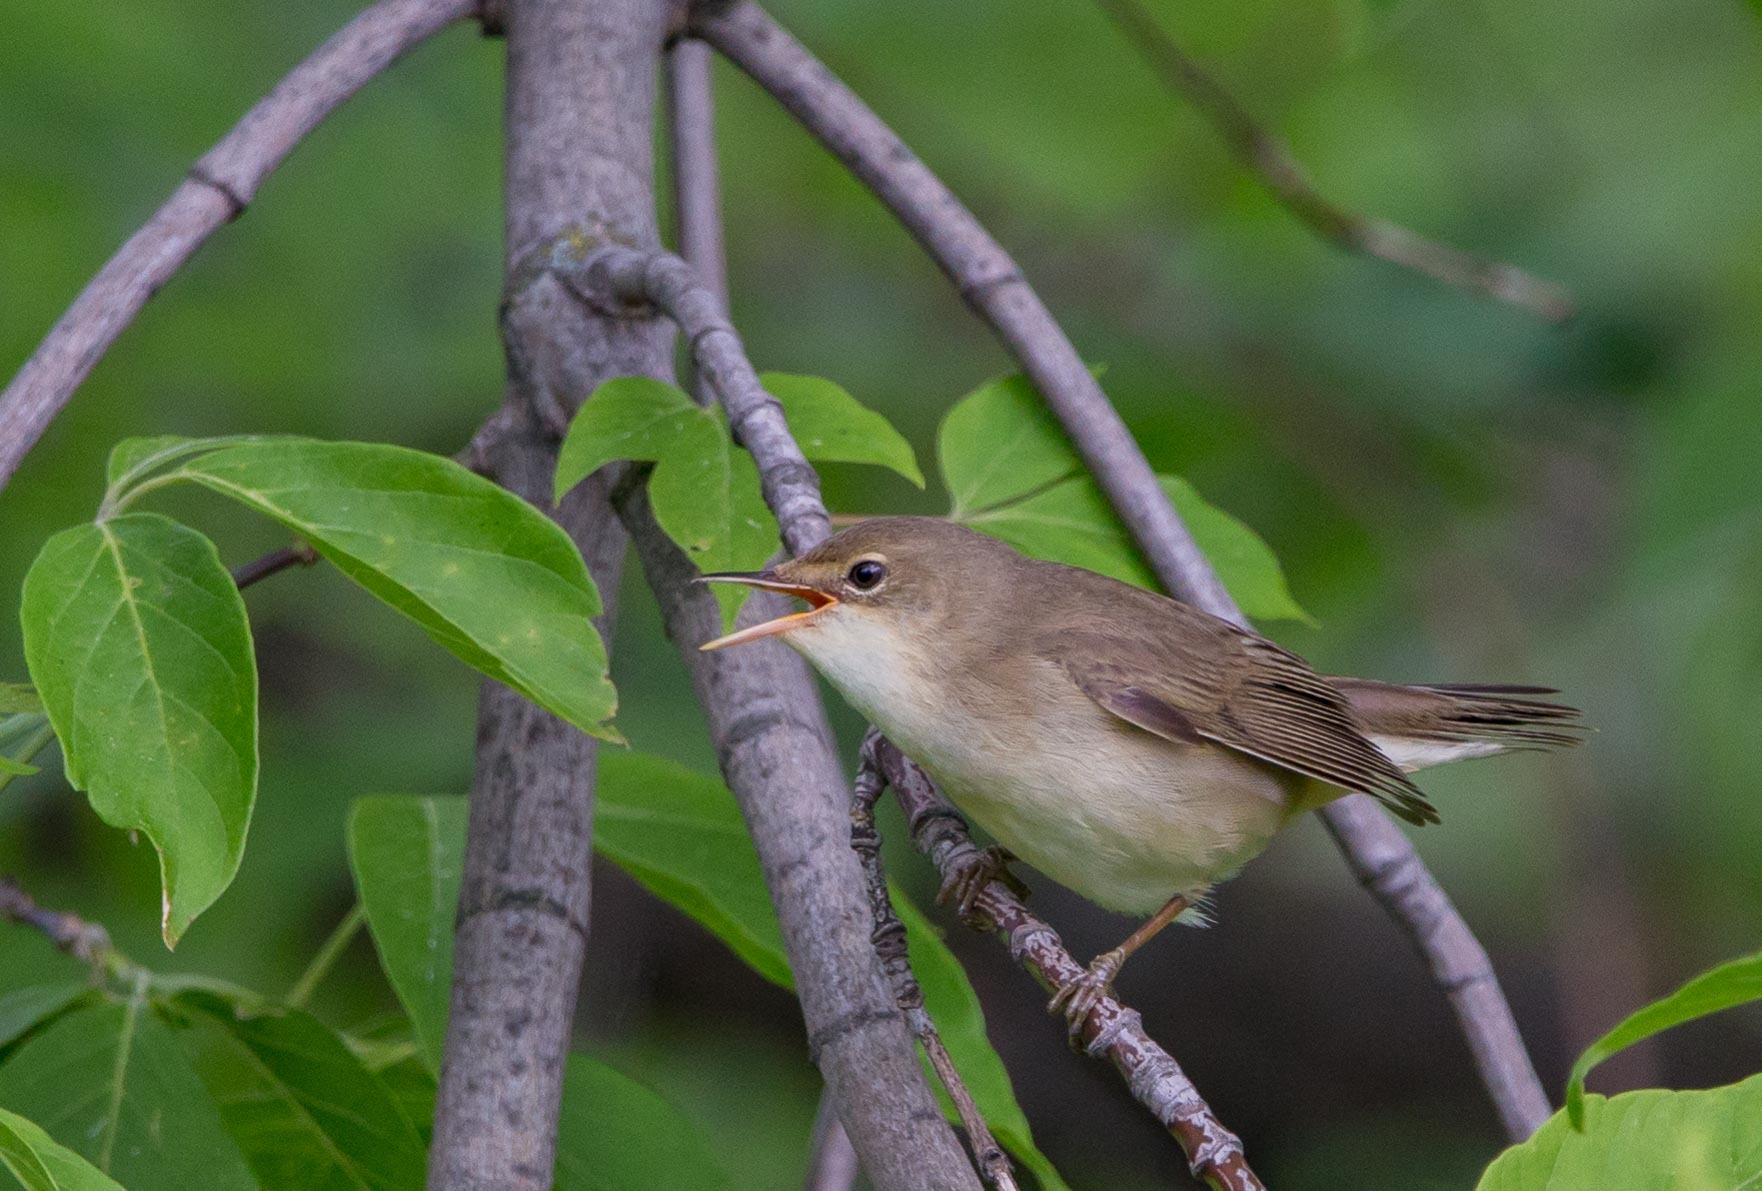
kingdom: Animalia
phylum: Chordata
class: Aves
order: Passeriformes
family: Acrocephalidae
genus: Acrocephalus
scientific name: Acrocephalus palustris
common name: Marsh warbler
